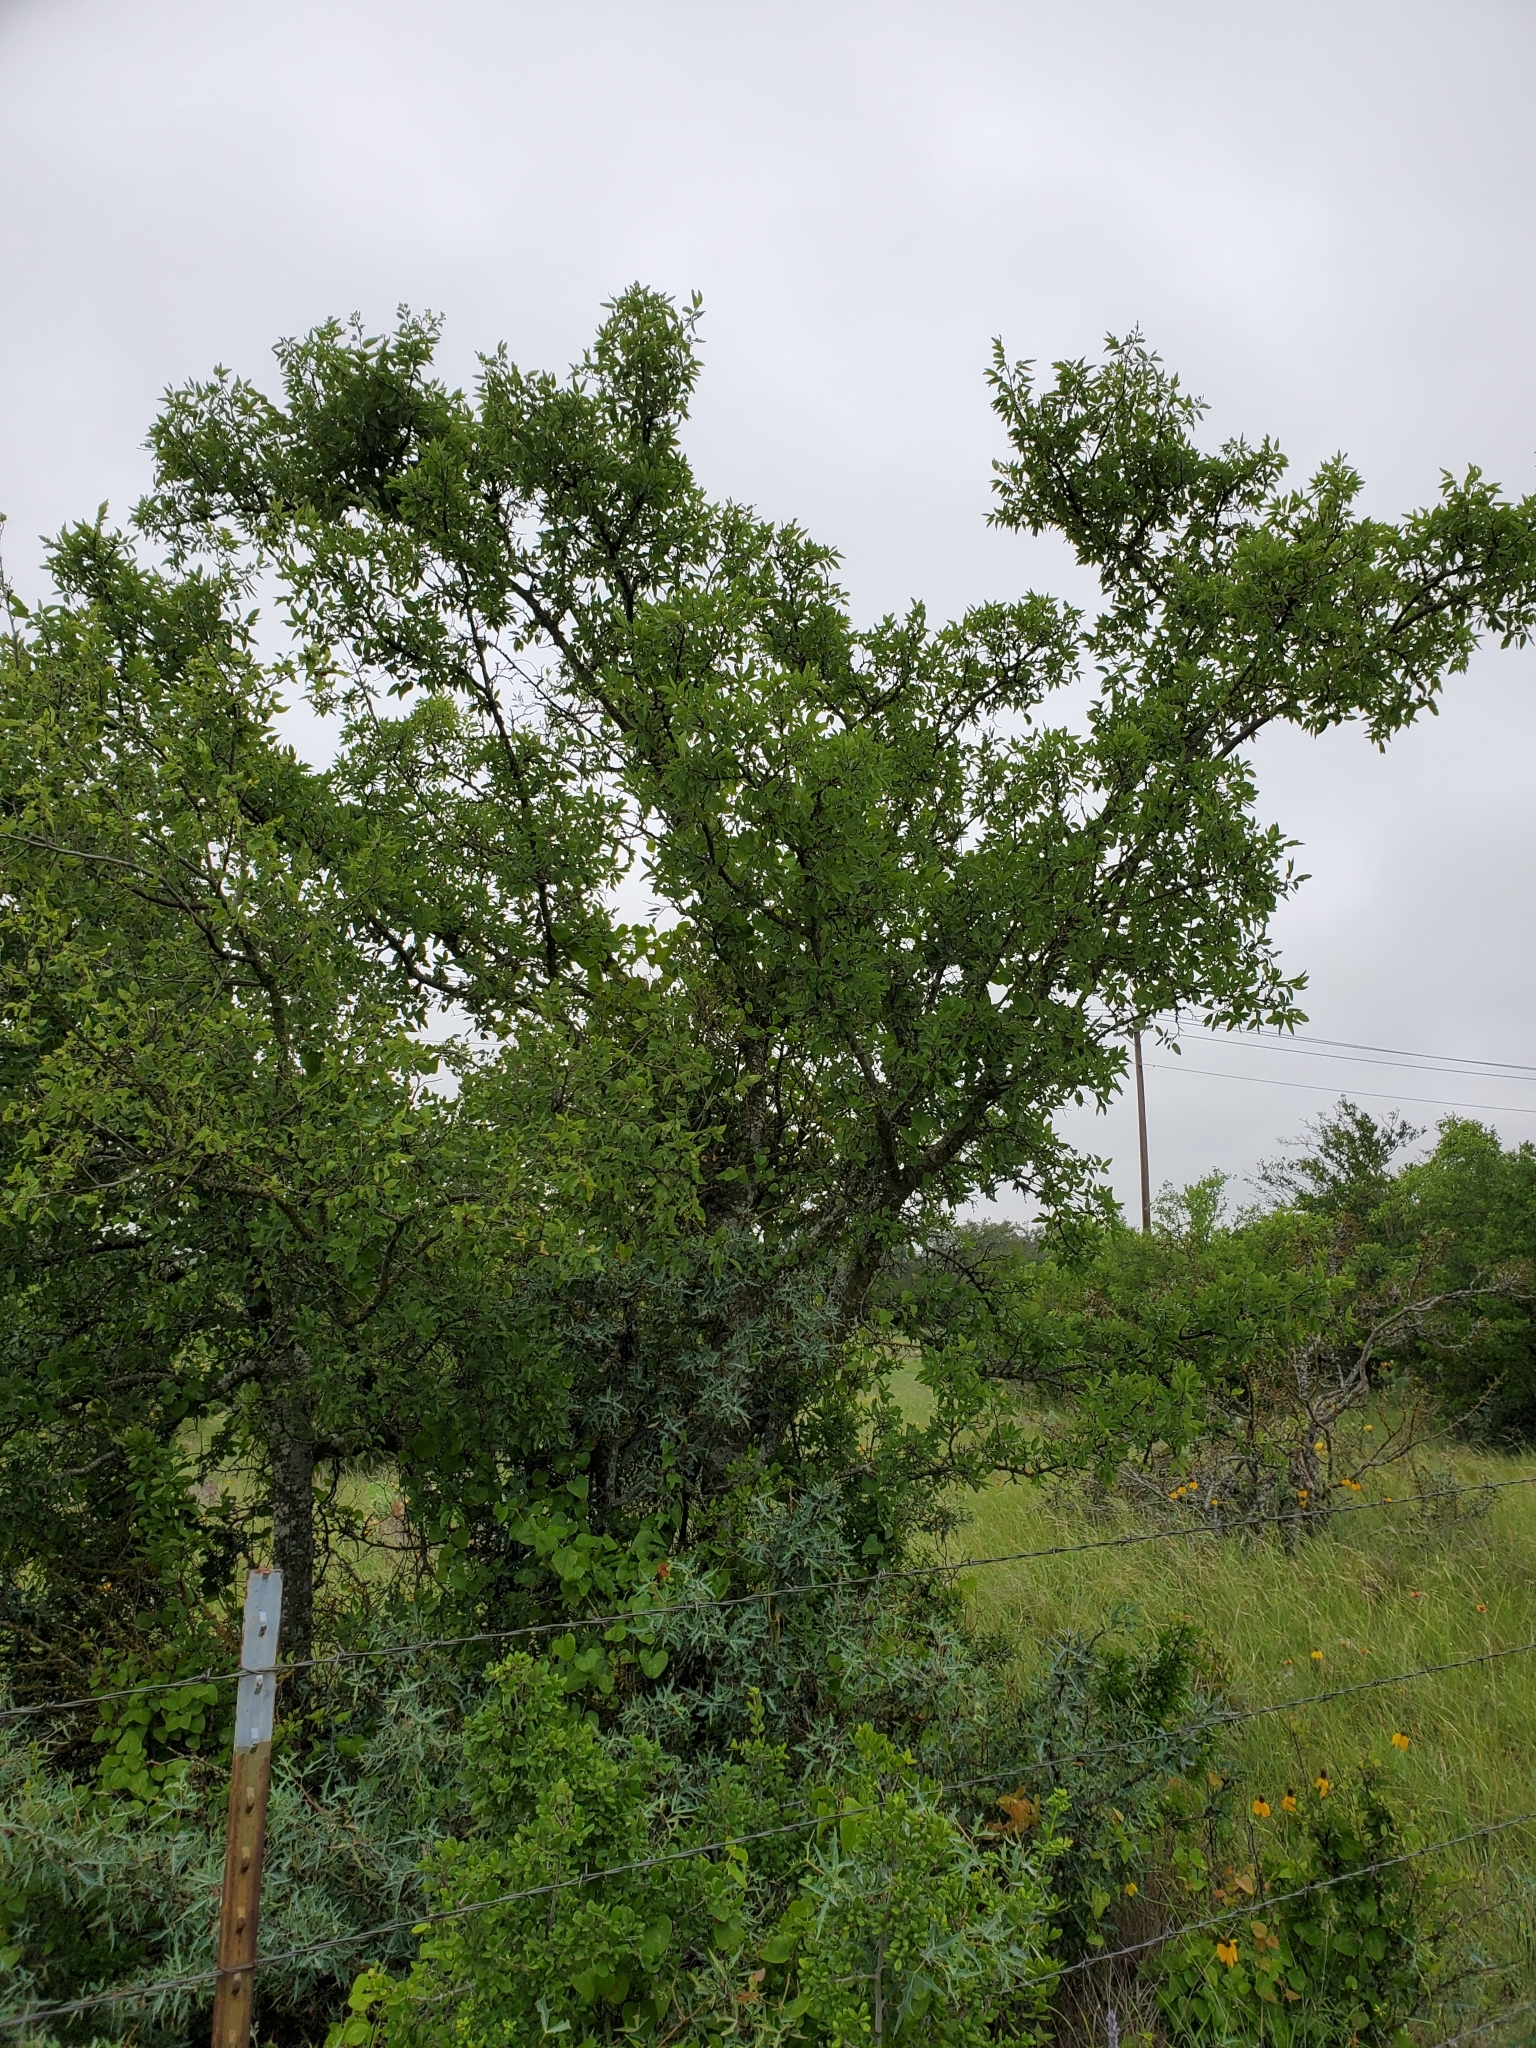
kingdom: Plantae
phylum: Tracheophyta
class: Magnoliopsida
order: Rosales
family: Cannabaceae
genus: Celtis
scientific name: Celtis reticulata
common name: Netleaf hackberry
